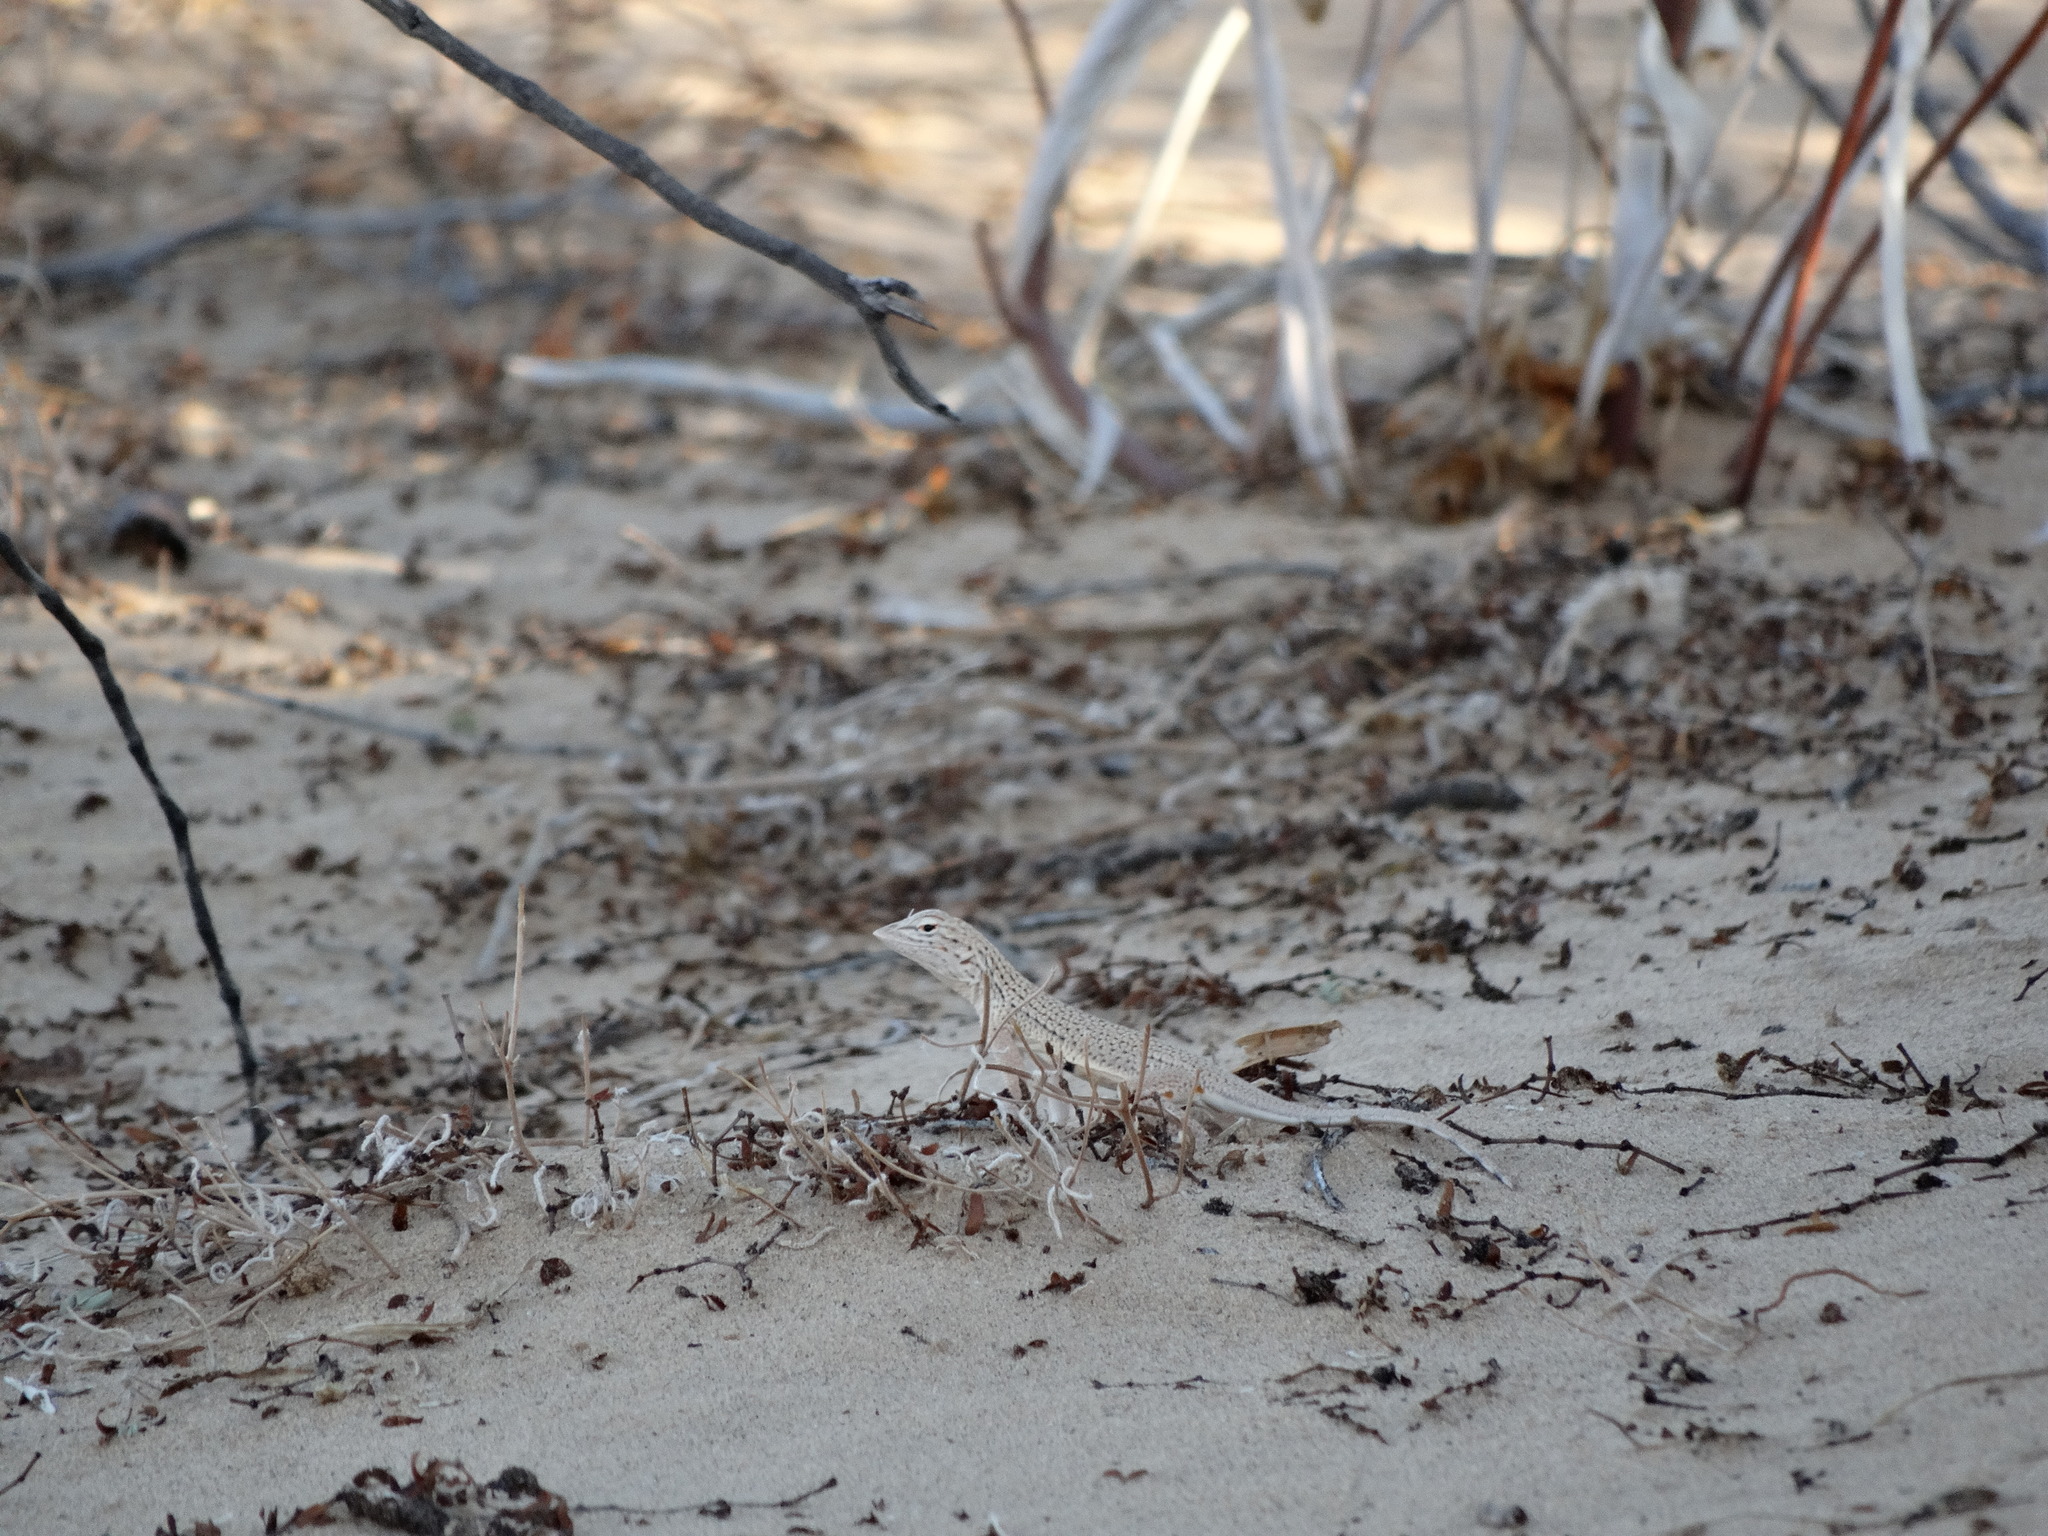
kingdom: Animalia
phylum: Chordata
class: Squamata
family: Phrynosomatidae
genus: Uma
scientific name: Uma notata
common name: Colorado desert fringe-toed lizard
